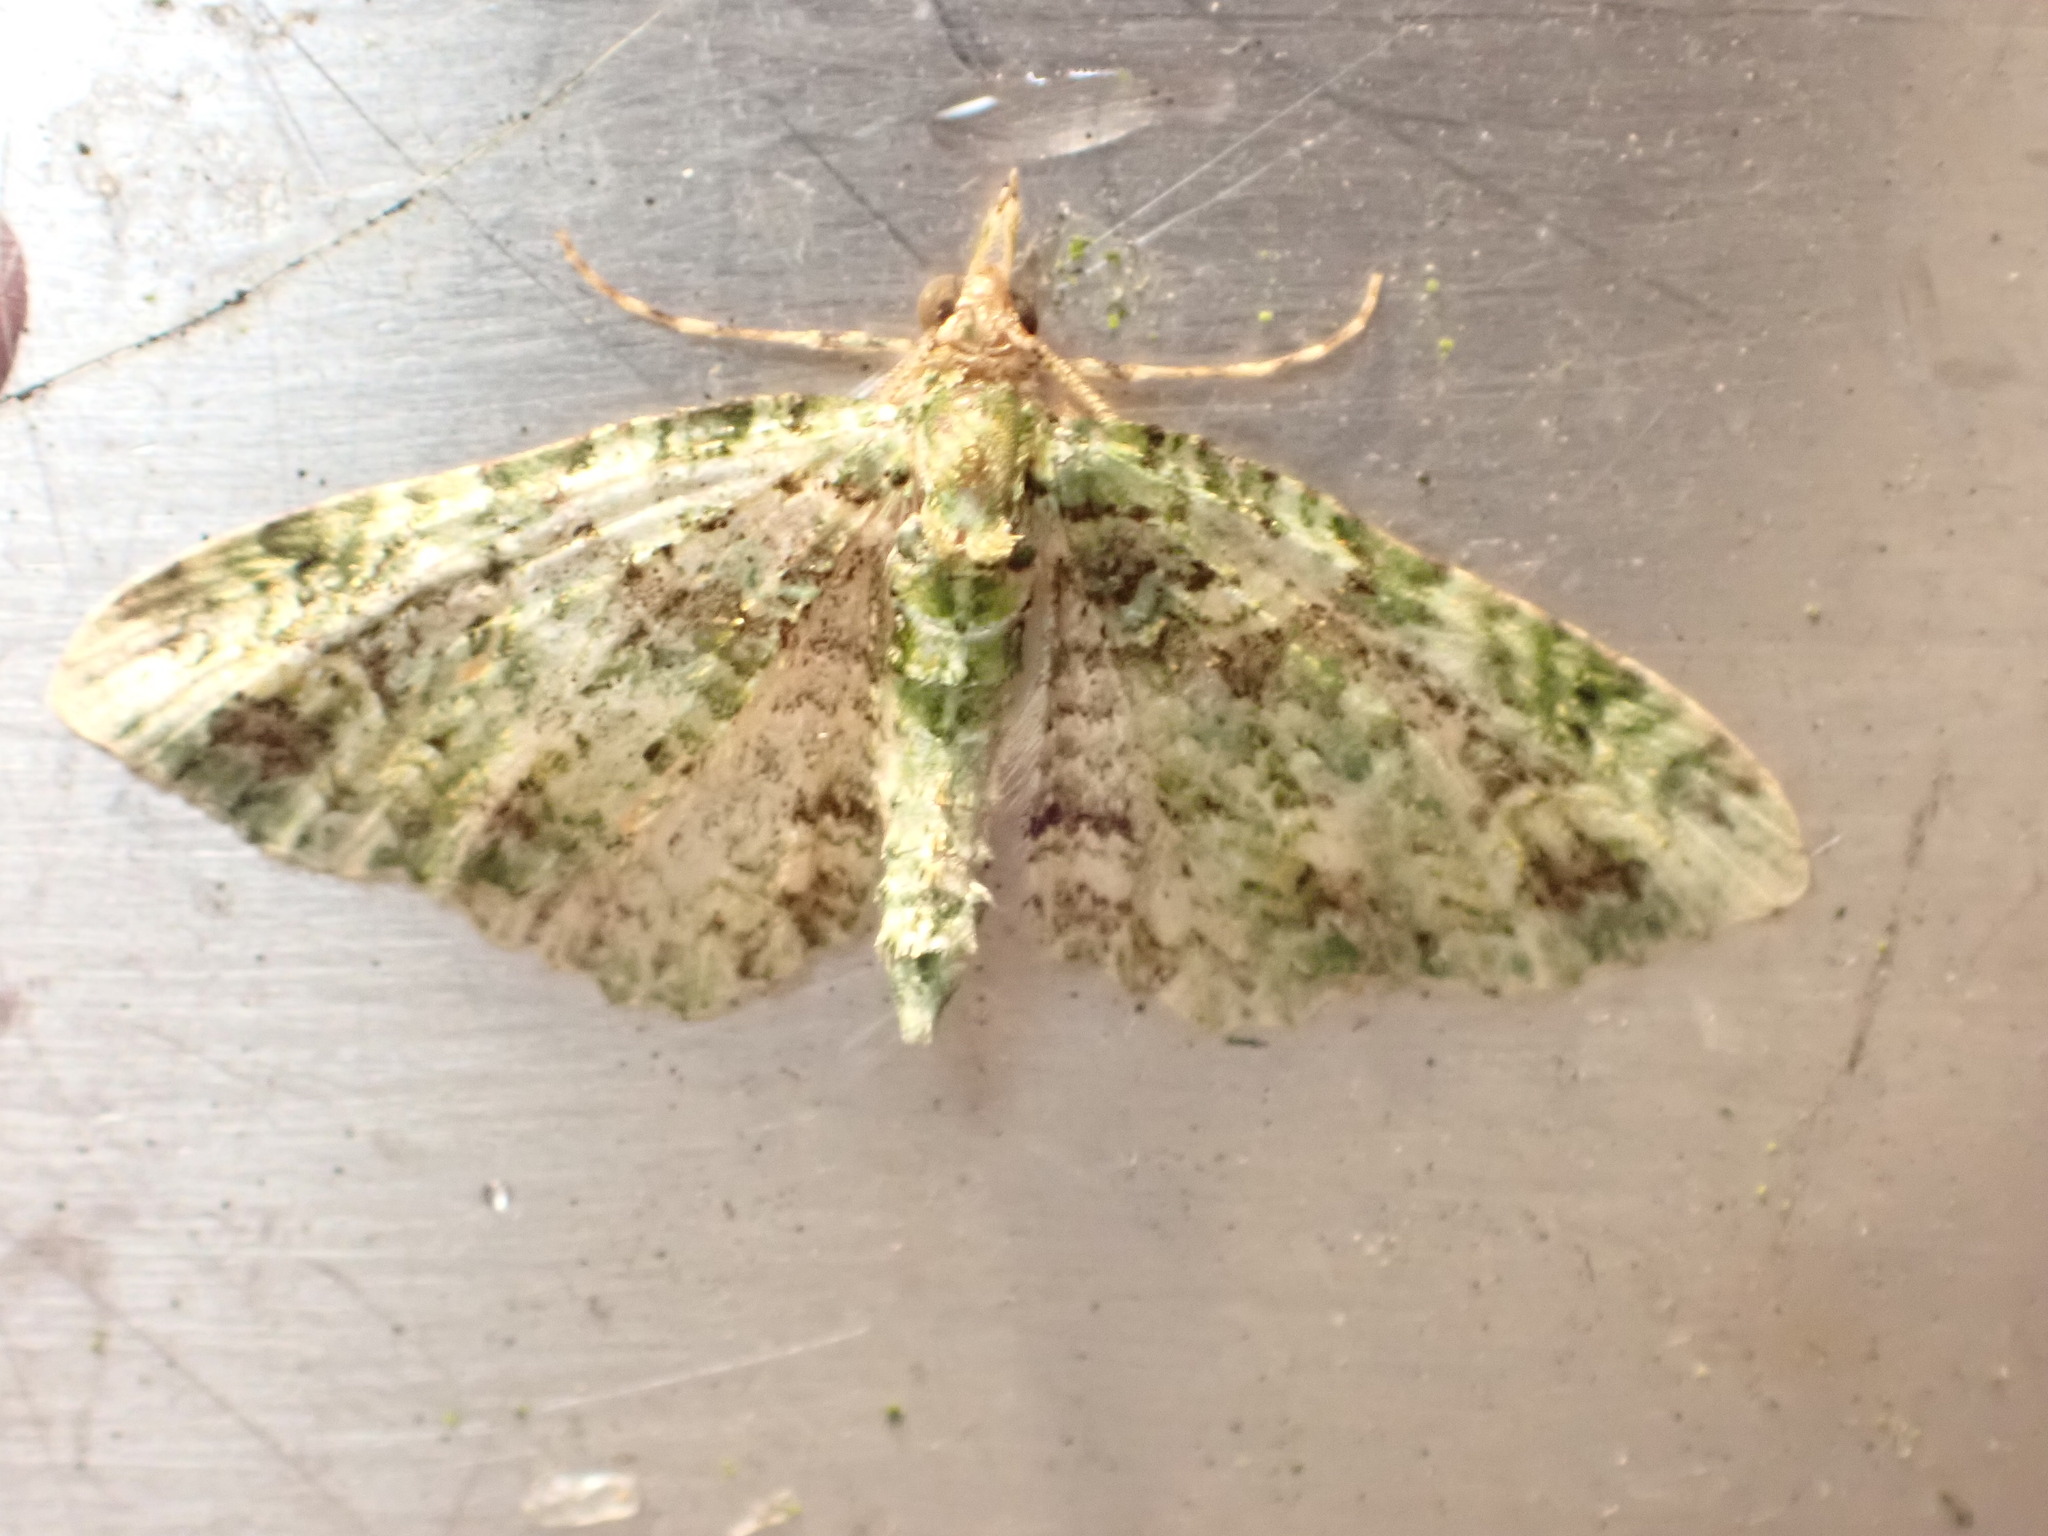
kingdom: Animalia
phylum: Arthropoda
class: Insecta
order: Lepidoptera
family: Geometridae
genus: Pasiphila
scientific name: Pasiphila muscosata
